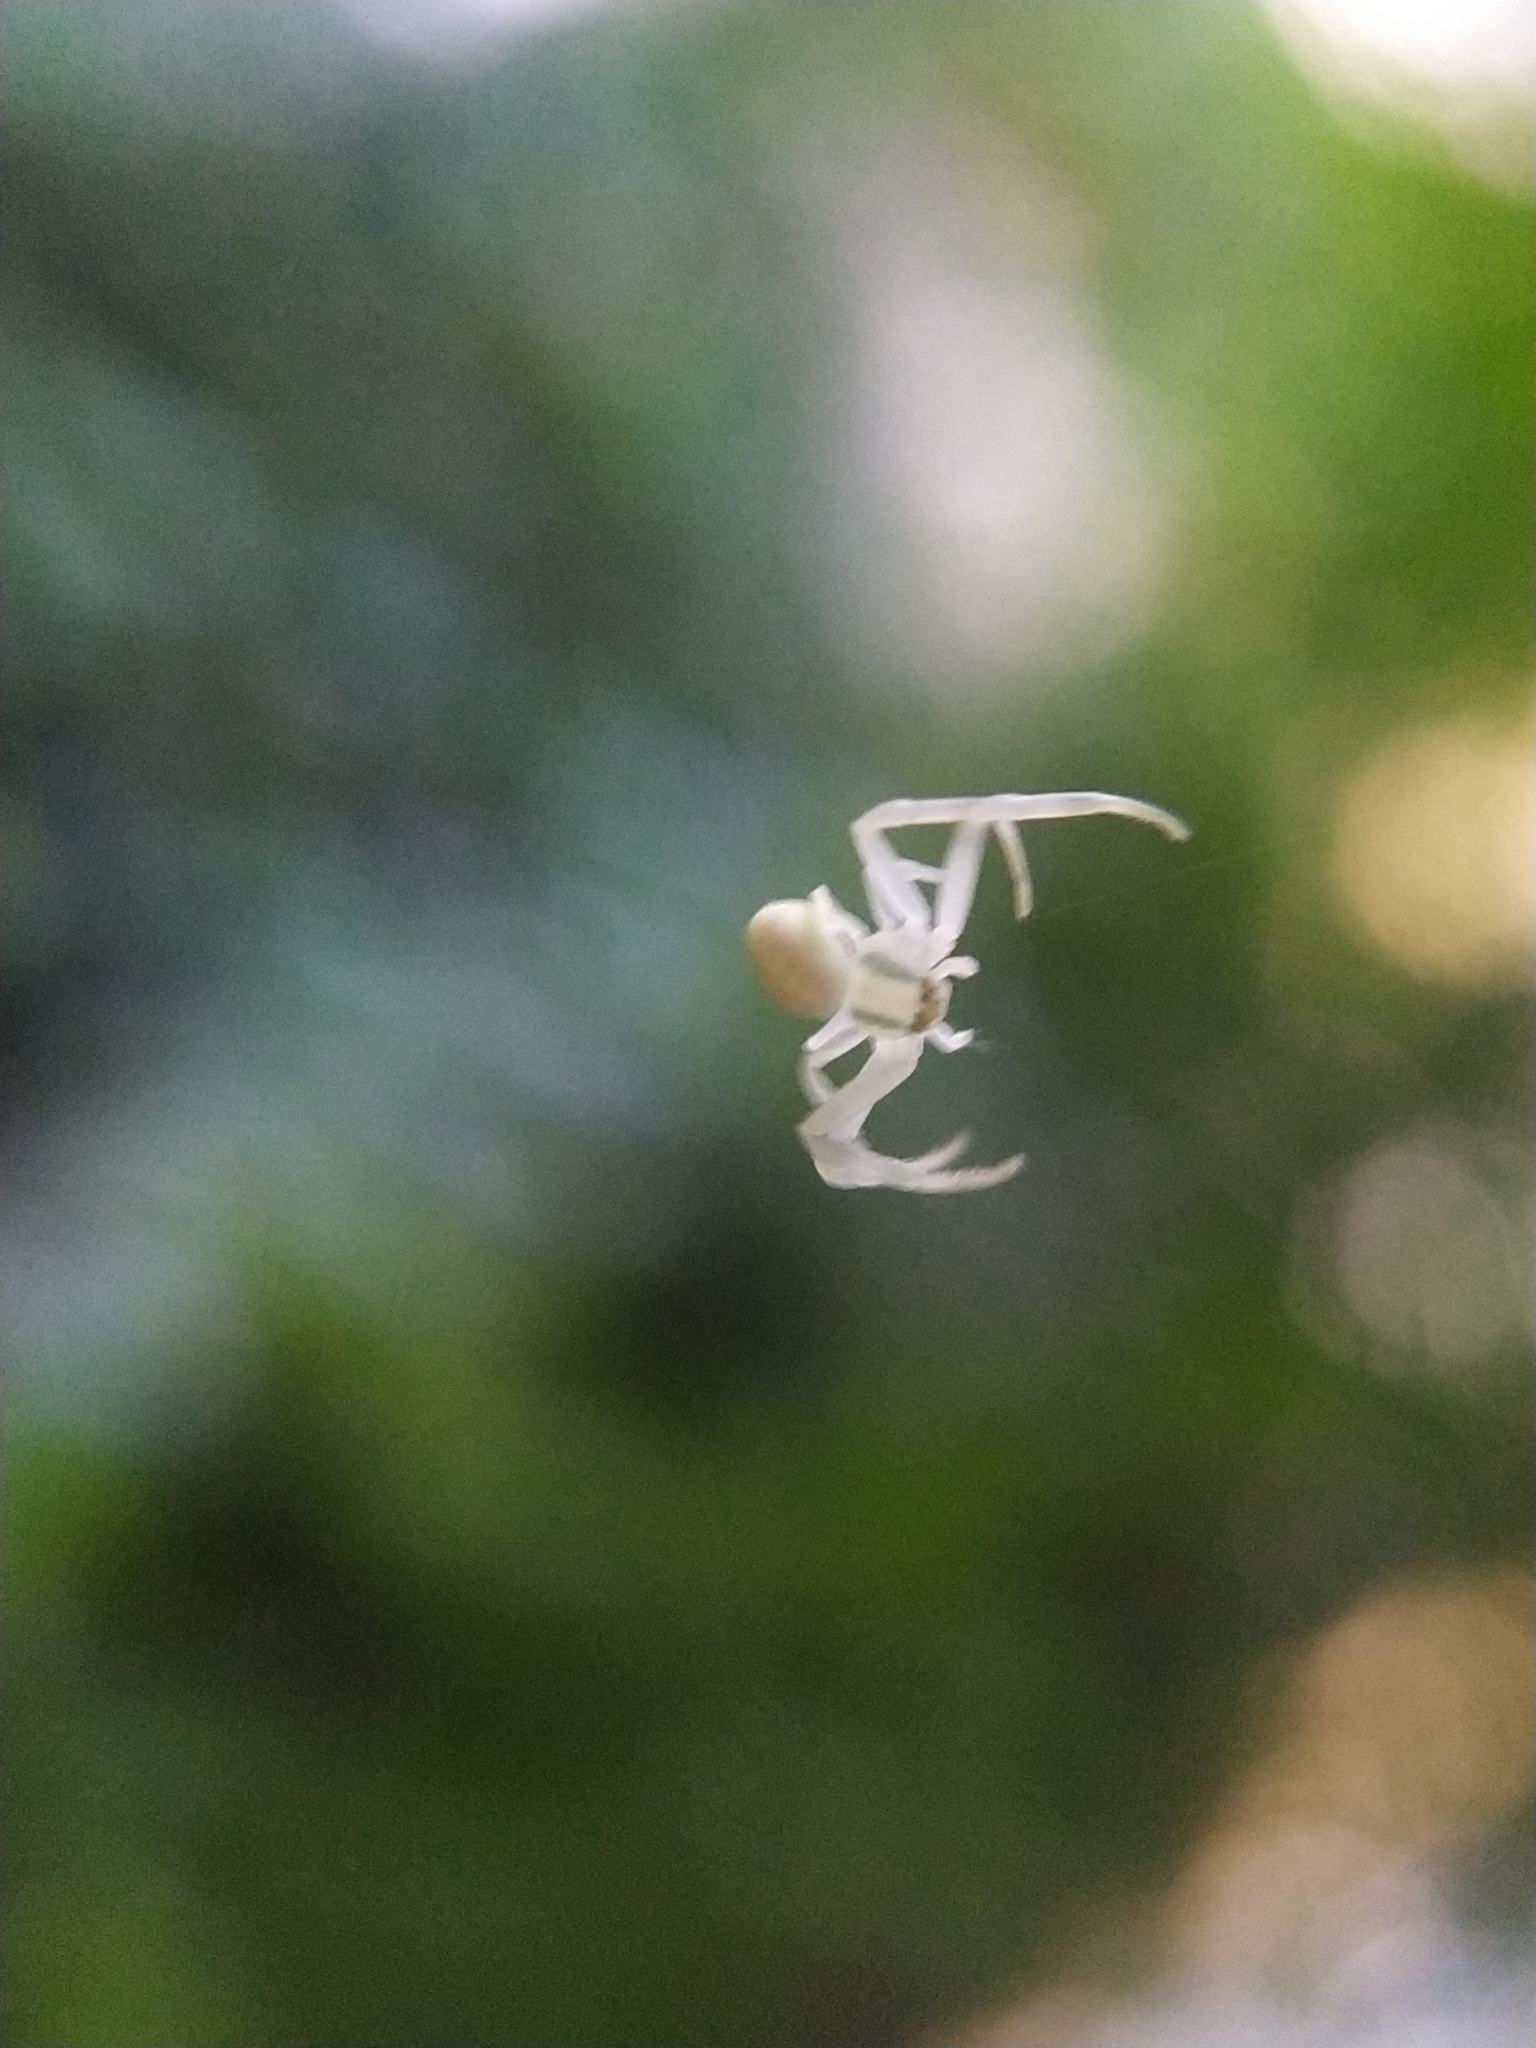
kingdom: Animalia
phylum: Arthropoda
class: Arachnida
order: Araneae
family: Thomisidae
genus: Misumena
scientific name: Misumena vatia
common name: Goldenrod crab spider
